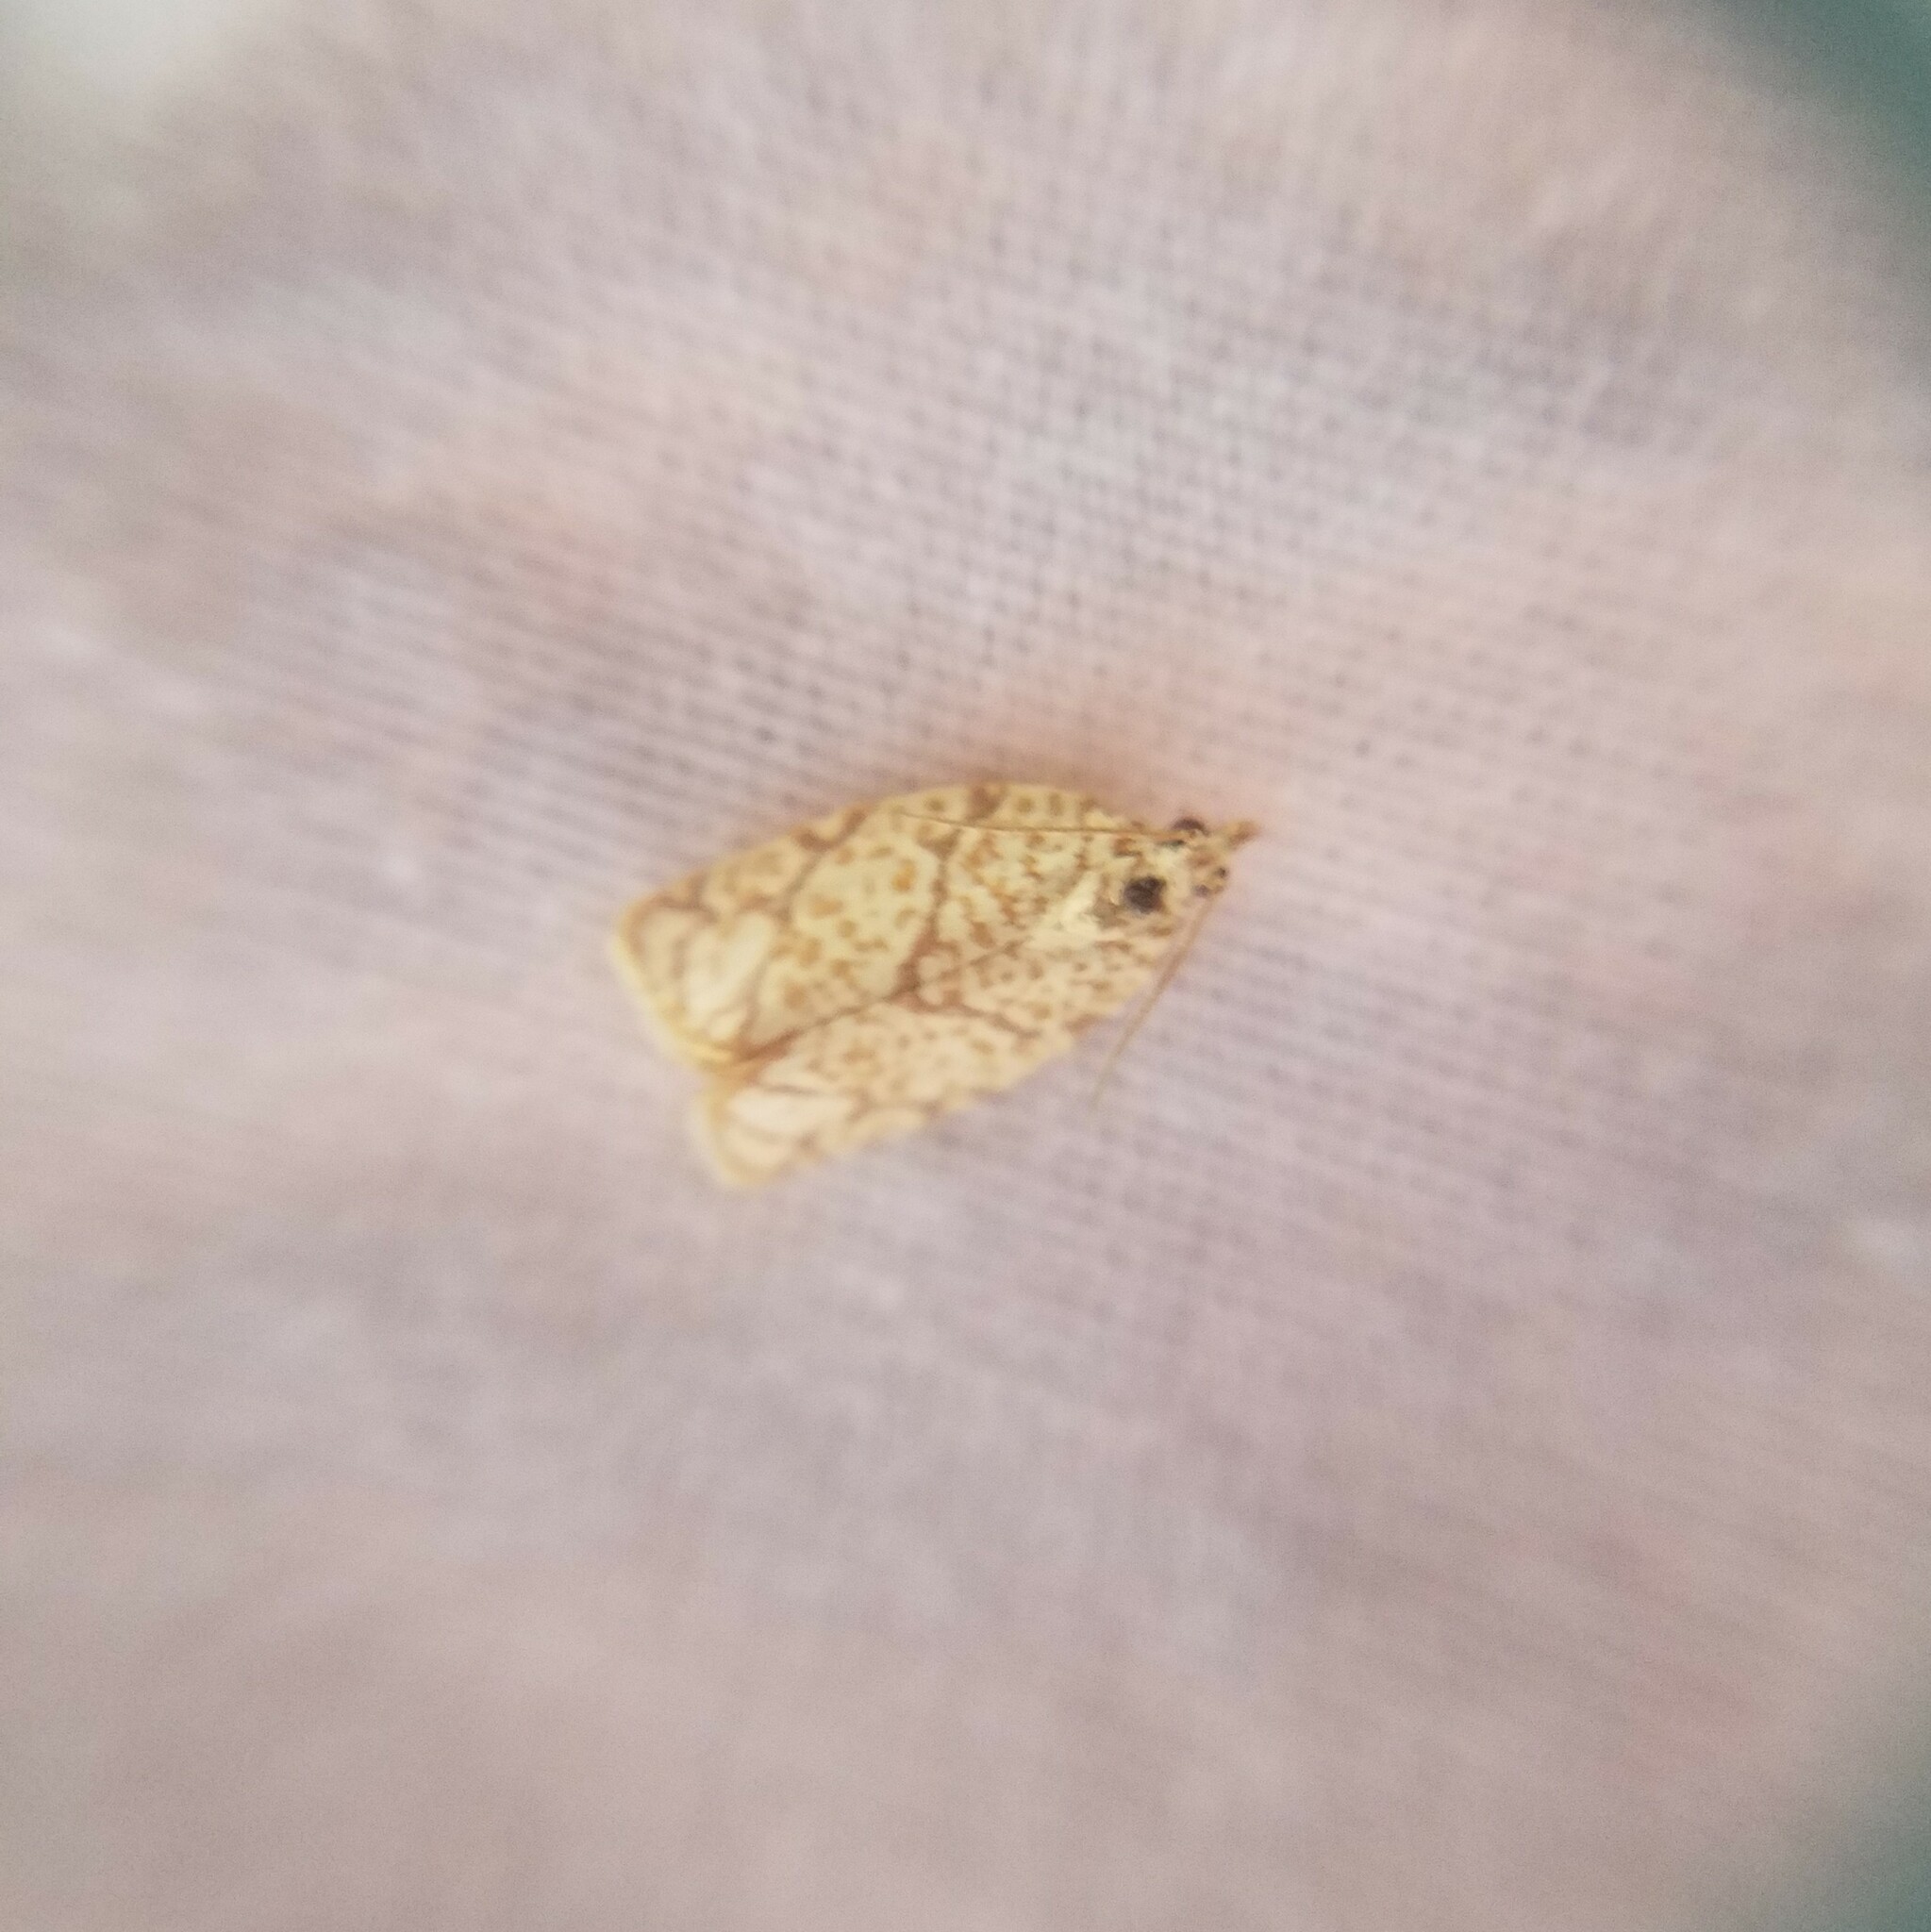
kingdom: Animalia
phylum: Arthropoda
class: Insecta
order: Lepidoptera
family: Tortricidae
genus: Argyrotaenia
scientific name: Argyrotaenia quercifoliana
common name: Yellow-winged oak leafroller moth
